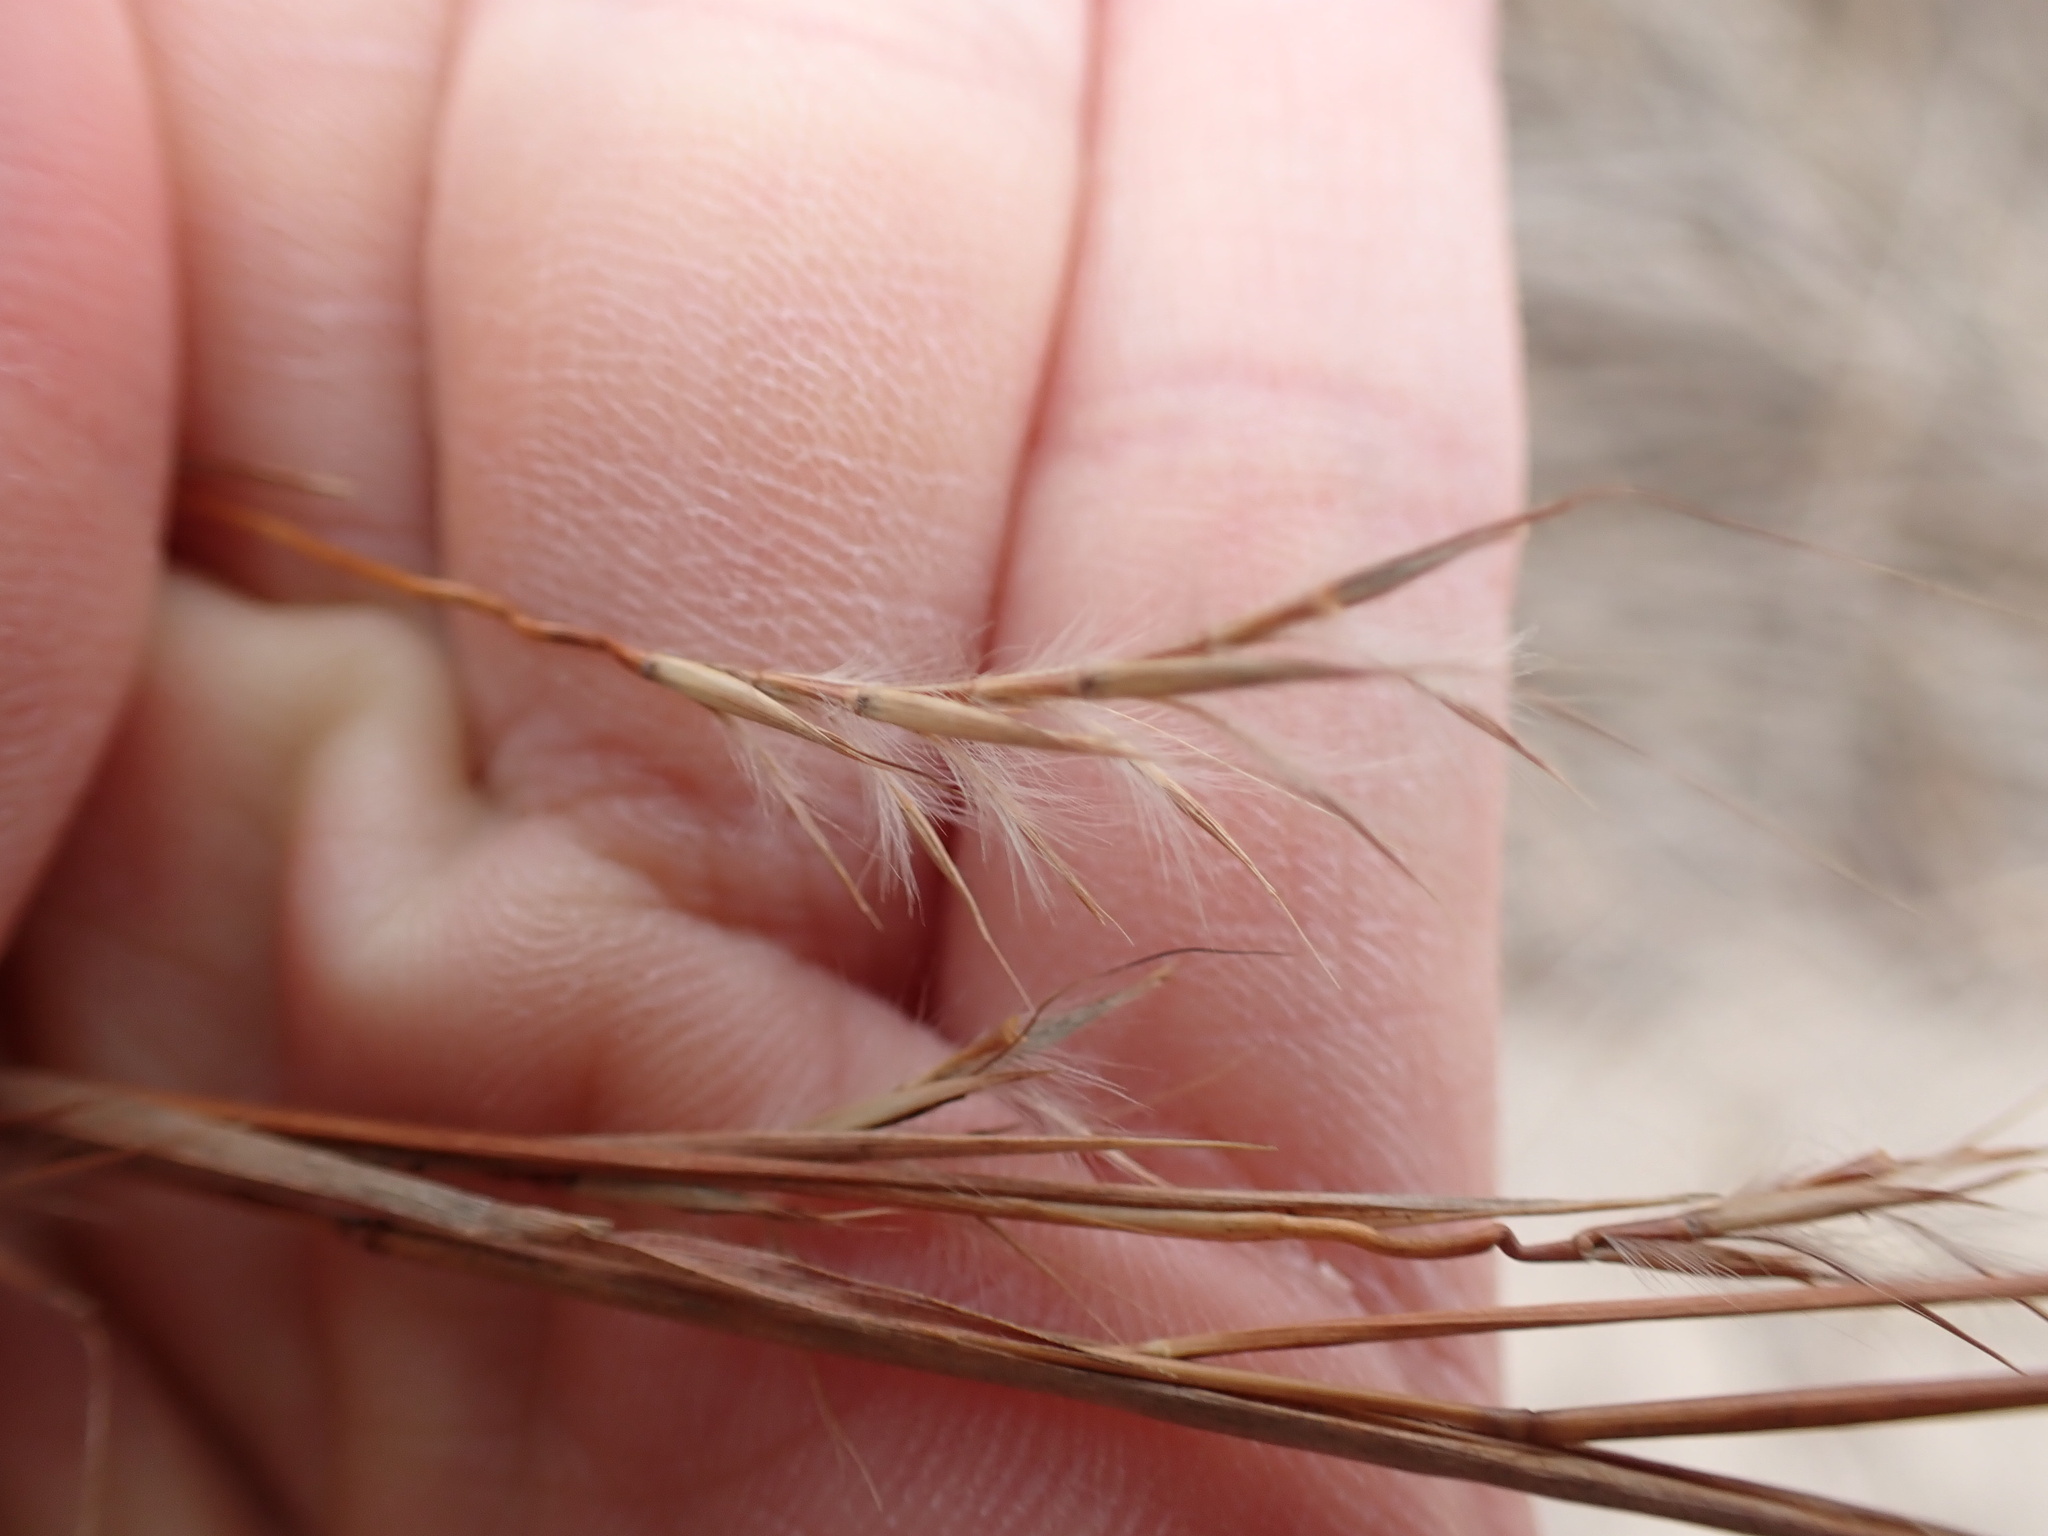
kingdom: Plantae
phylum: Tracheophyta
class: Liliopsida
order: Poales
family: Poaceae
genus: Schizachyrium
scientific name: Schizachyrium scoparium
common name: Little bluestem
